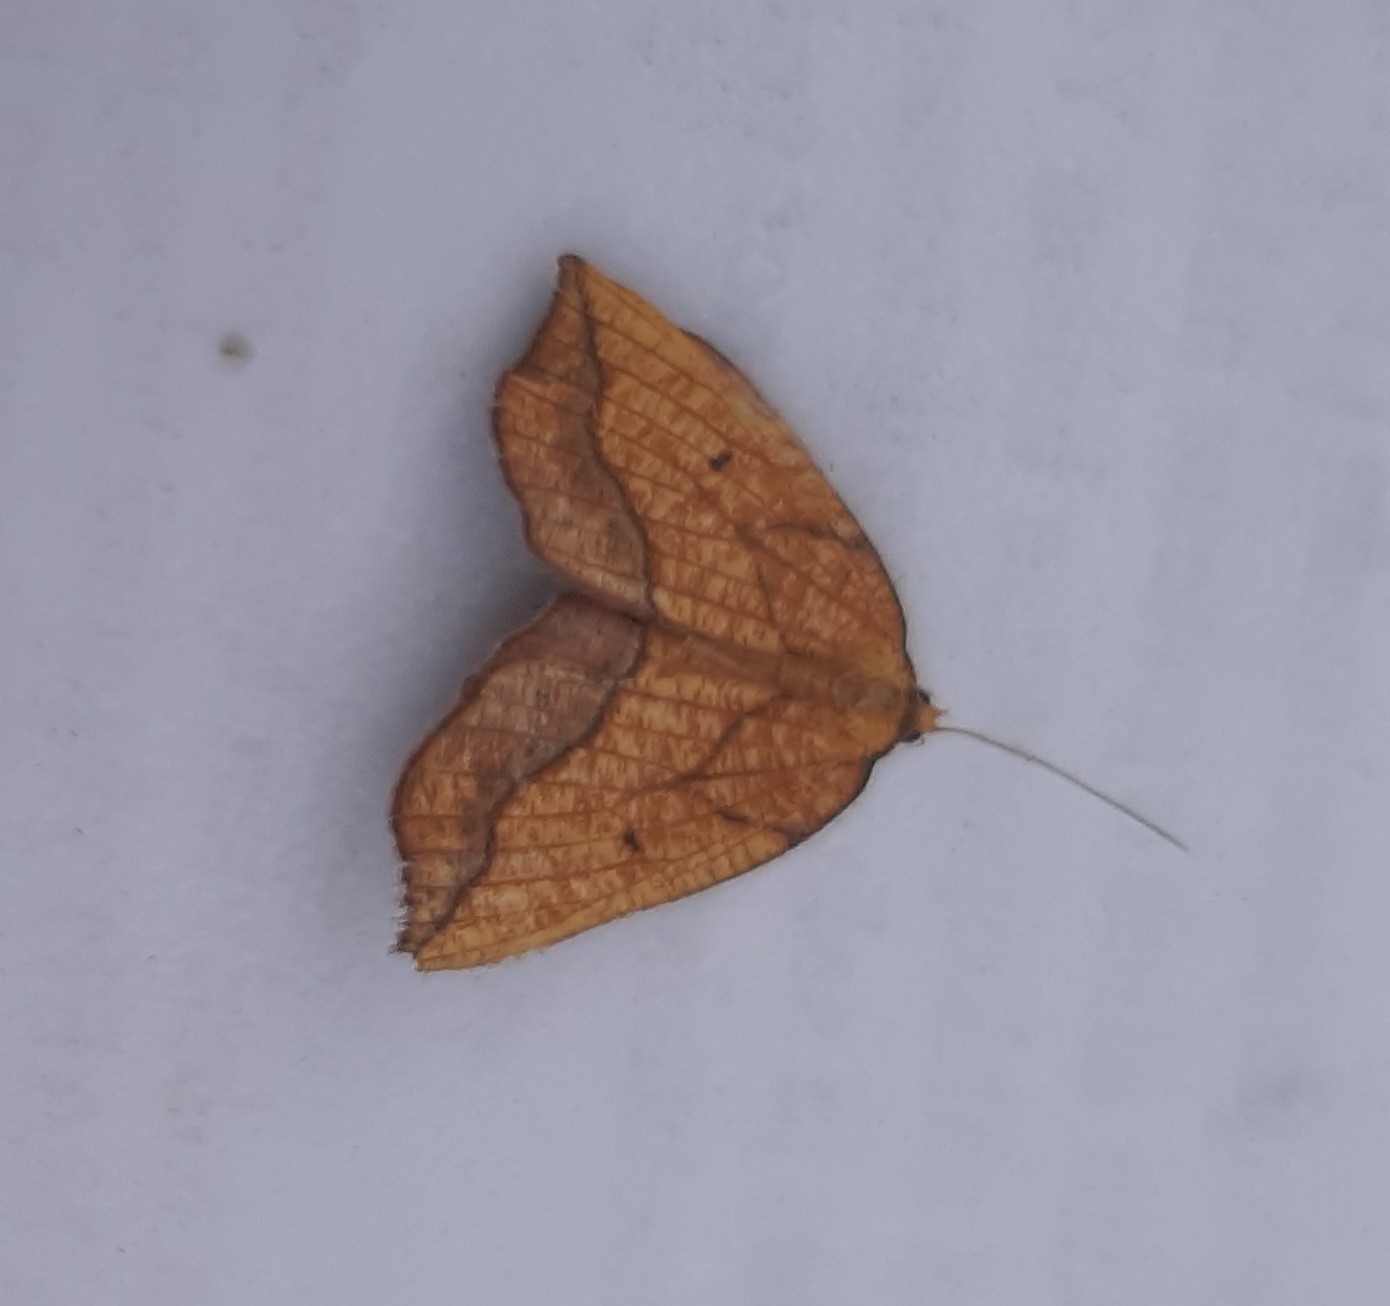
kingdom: Animalia
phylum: Arthropoda
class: Insecta
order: Lepidoptera
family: Geometridae
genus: Epione
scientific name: Epione repandaria
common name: Bordered beauty
